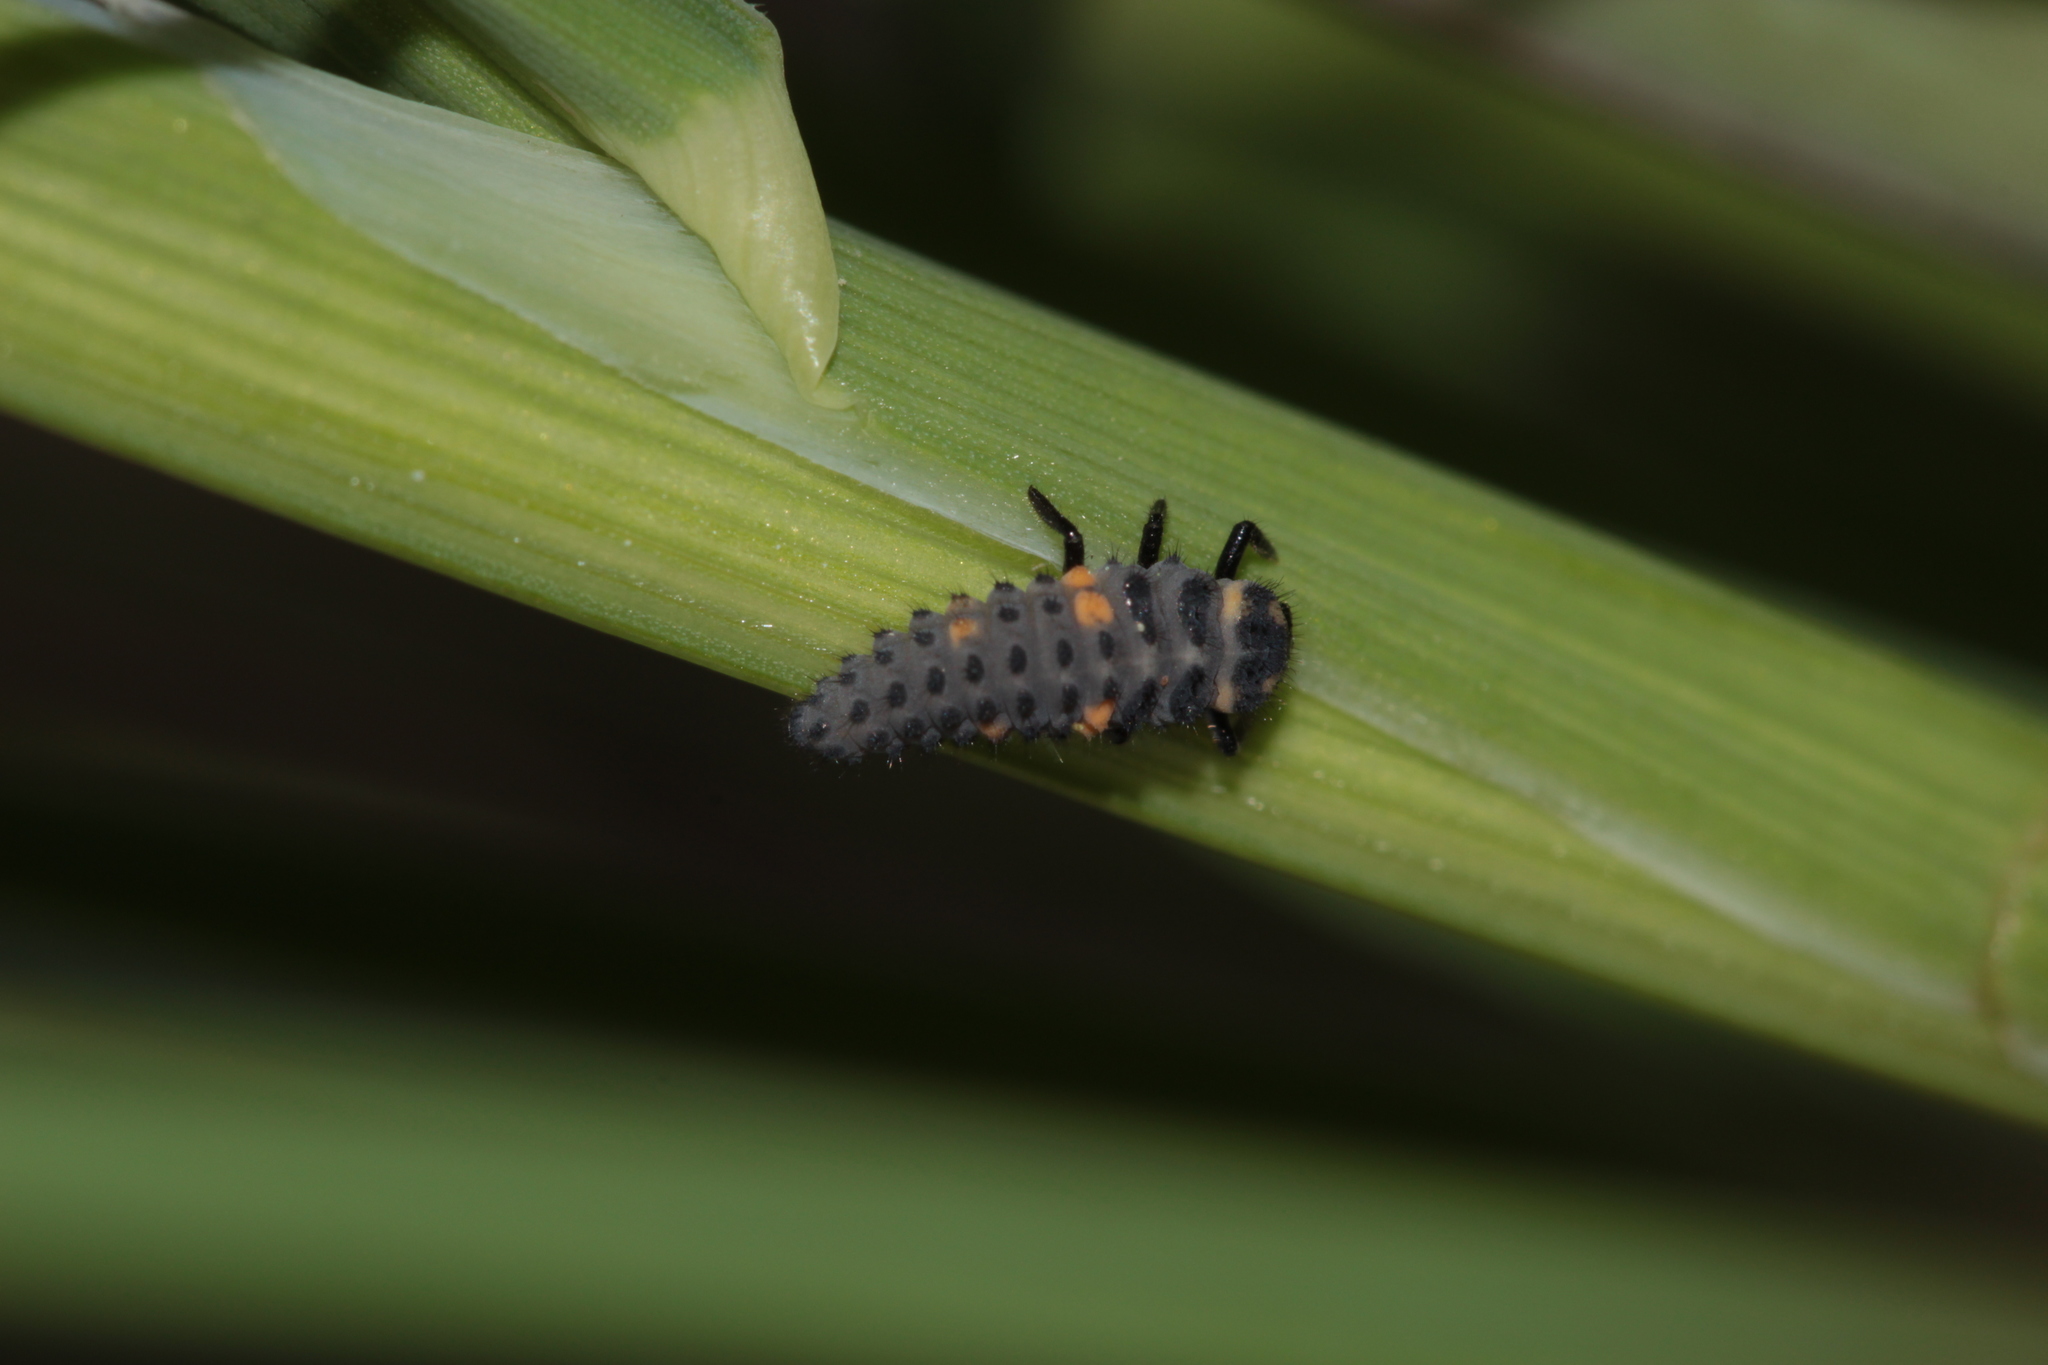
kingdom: Animalia
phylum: Arthropoda
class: Insecta
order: Coleoptera
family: Coccinellidae
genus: Coccinella
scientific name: Coccinella septempunctata
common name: Sevenspotted lady beetle
